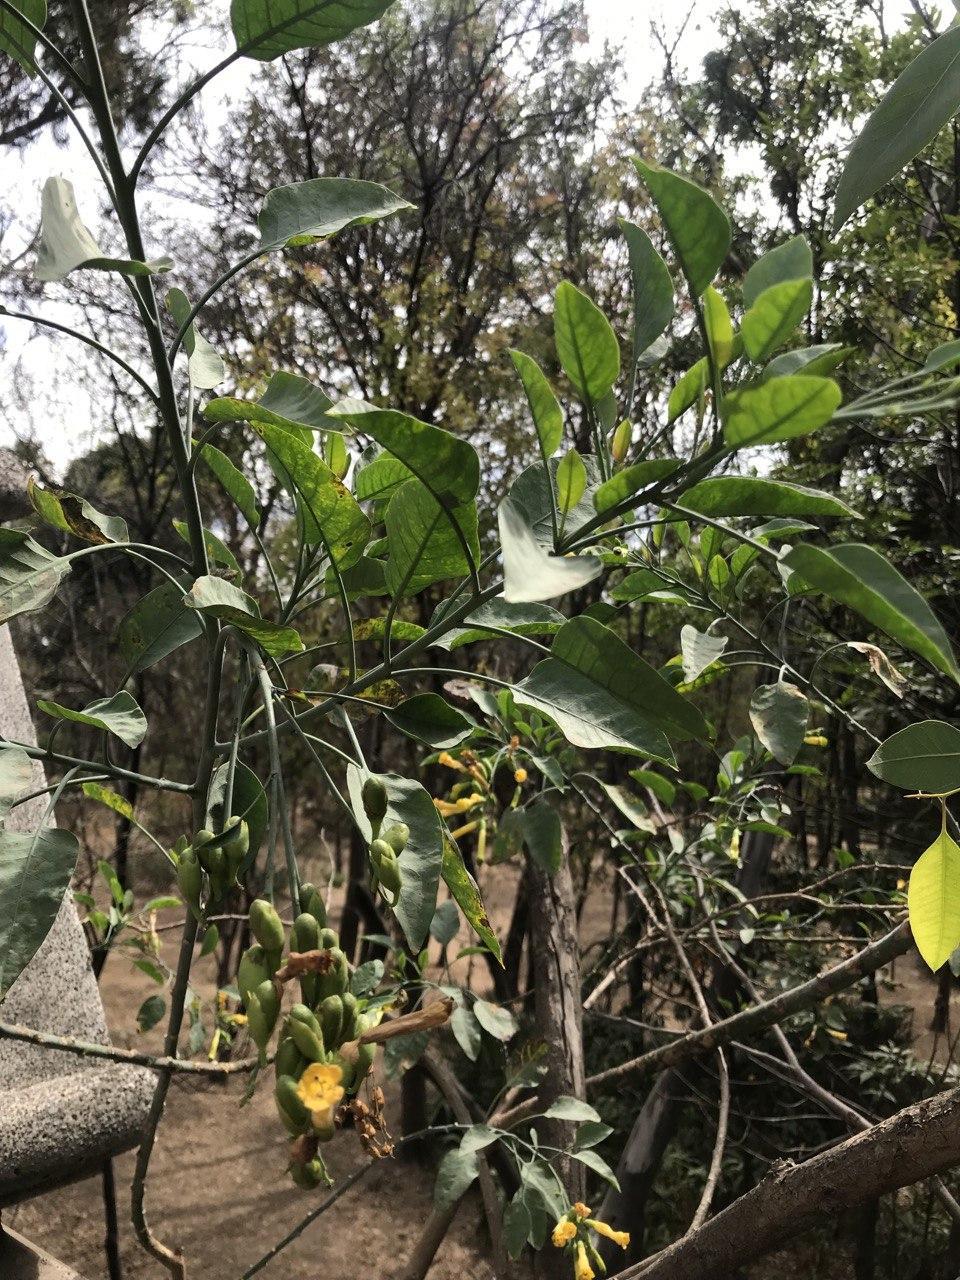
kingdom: Plantae
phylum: Tracheophyta
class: Magnoliopsida
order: Solanales
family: Solanaceae
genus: Nicotiana
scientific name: Nicotiana glauca
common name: Tree tobacco
